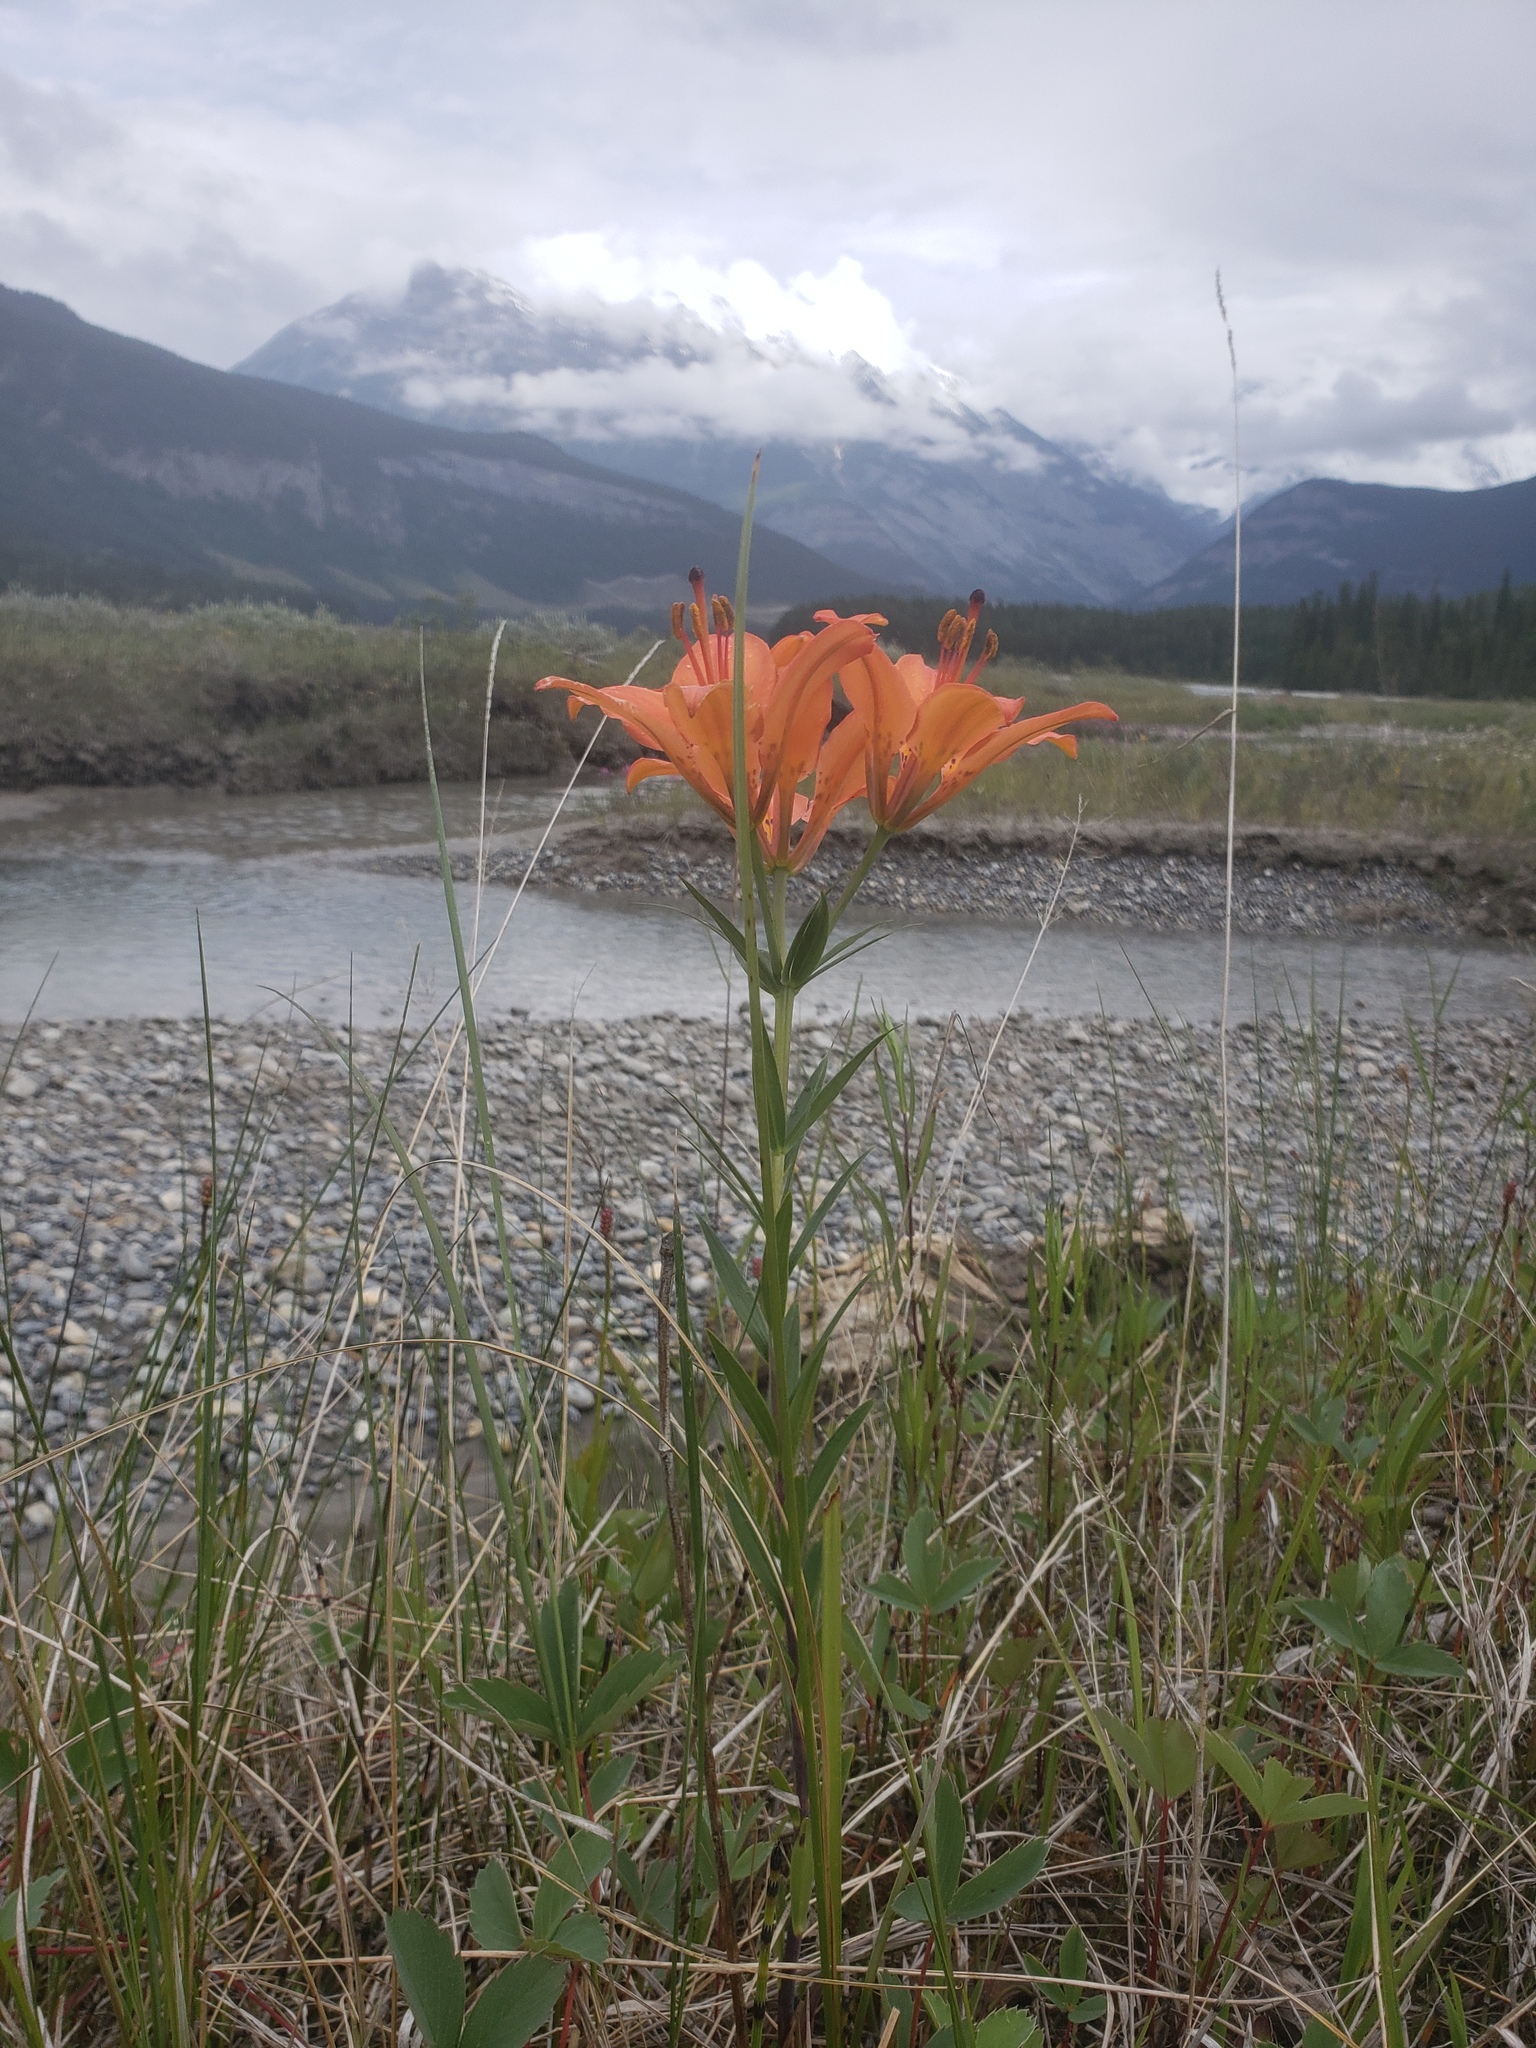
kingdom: Plantae
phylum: Tracheophyta
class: Liliopsida
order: Liliales
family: Liliaceae
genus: Lilium
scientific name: Lilium philadelphicum
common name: Red lily
